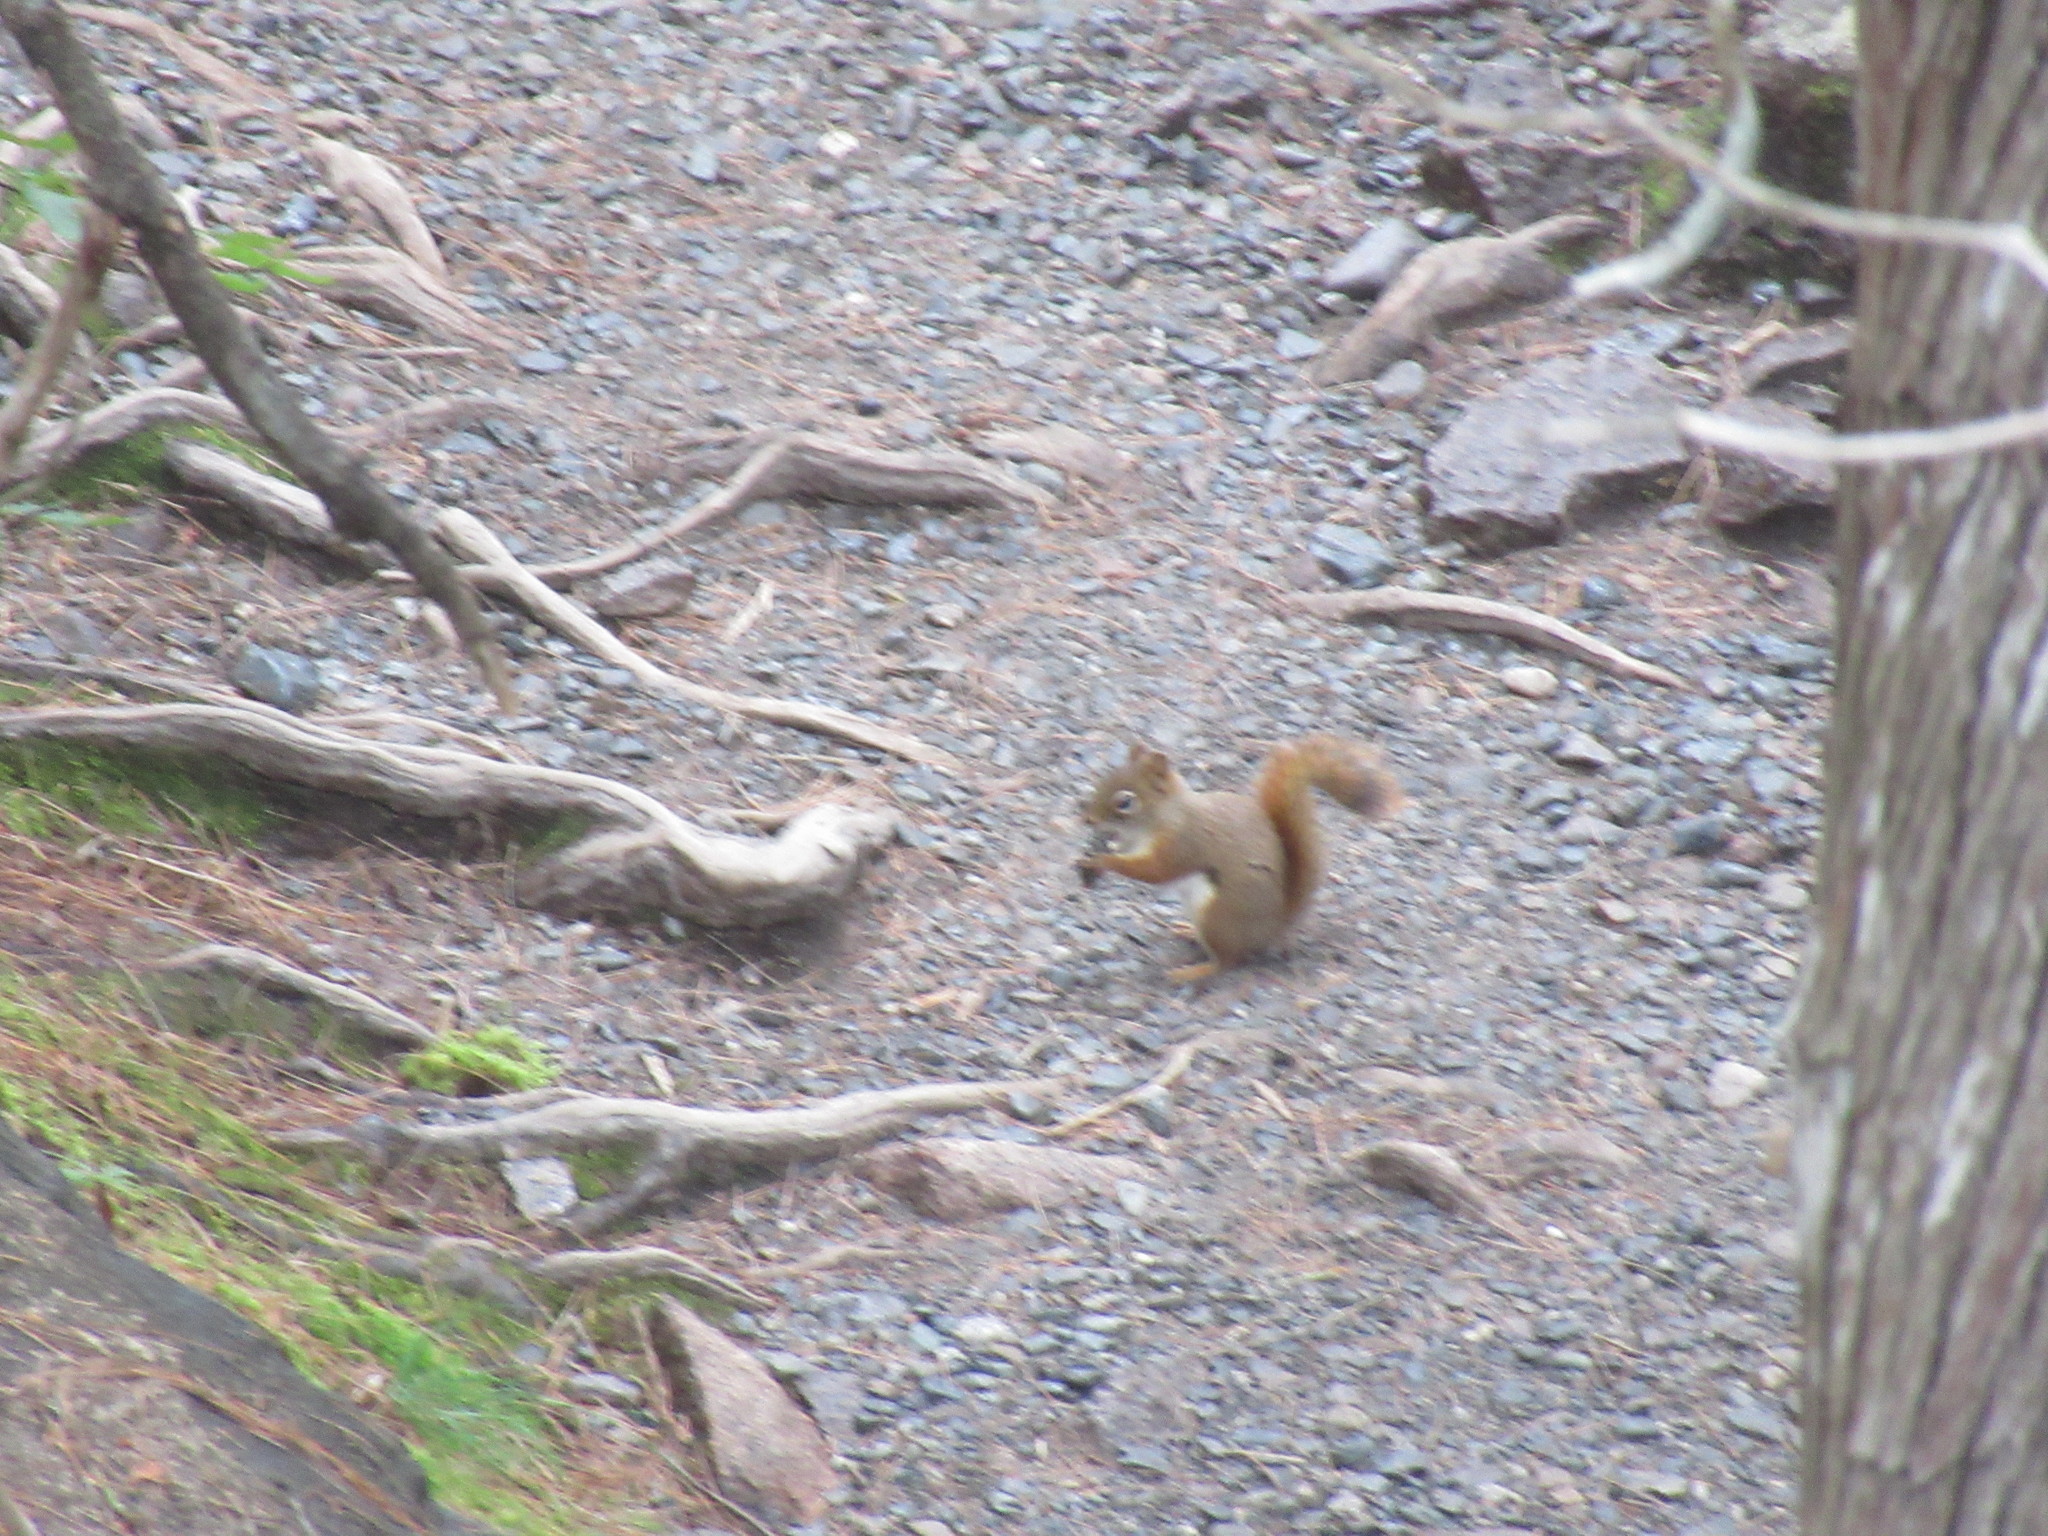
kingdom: Animalia
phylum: Chordata
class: Mammalia
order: Rodentia
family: Sciuridae
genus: Tamiasciurus
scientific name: Tamiasciurus hudsonicus
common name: Red squirrel
